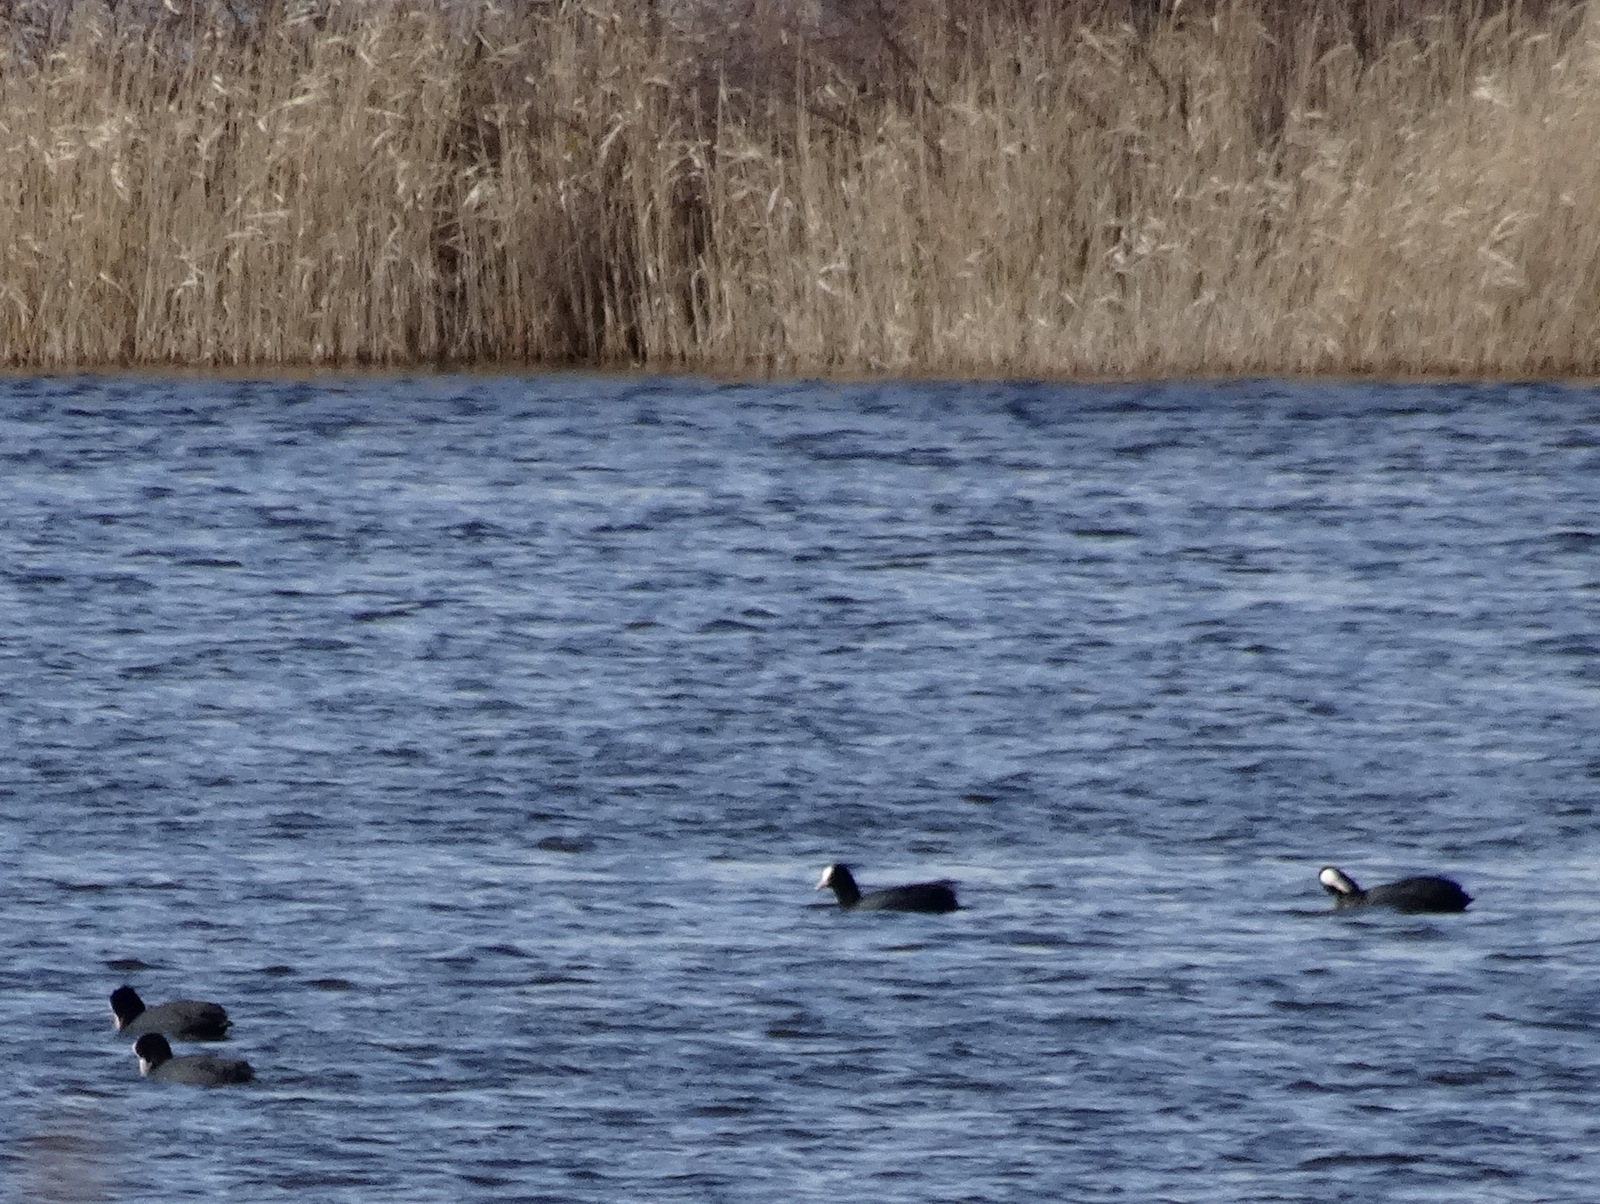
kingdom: Animalia
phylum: Chordata
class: Aves
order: Gruiformes
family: Rallidae
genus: Fulica
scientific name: Fulica atra
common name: Eurasian coot
